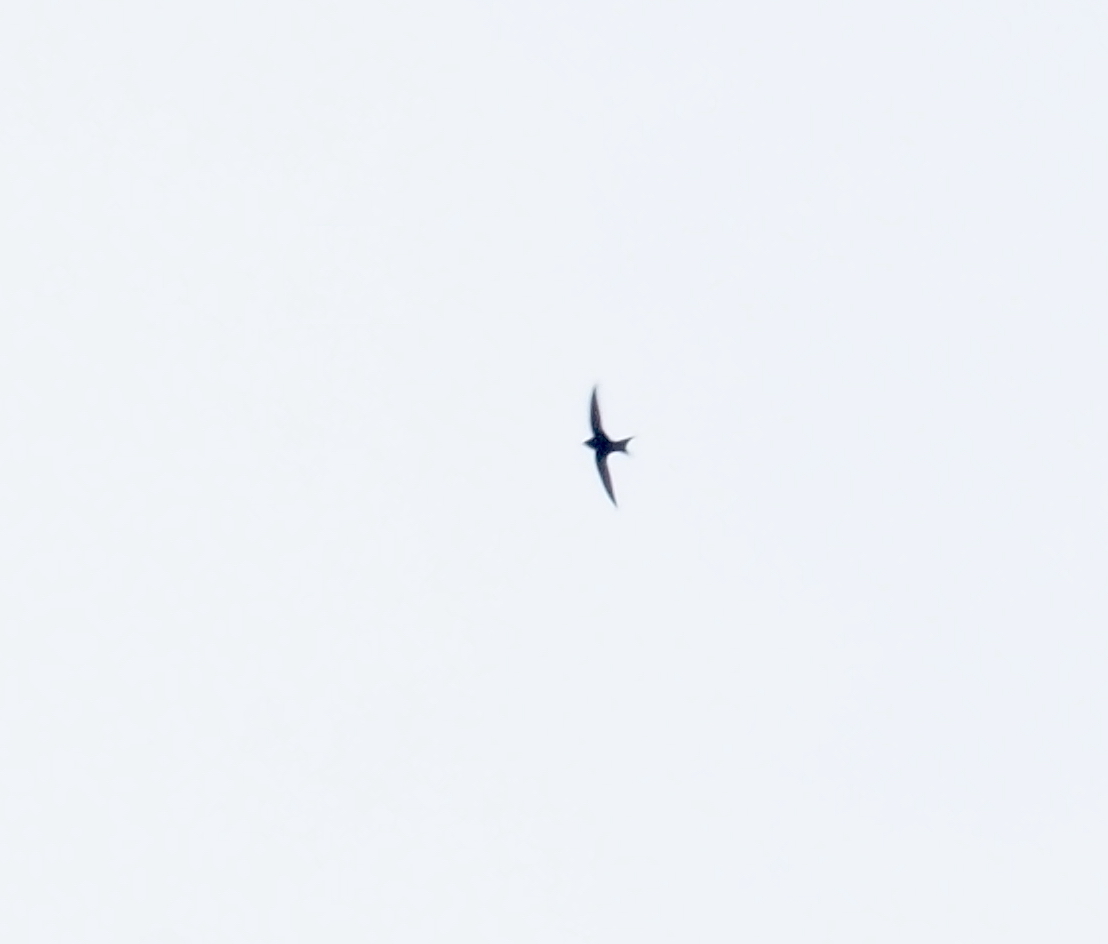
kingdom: Animalia
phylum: Chordata
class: Aves
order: Apodiformes
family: Apodidae
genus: Apus
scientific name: Apus apus
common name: Common swift
